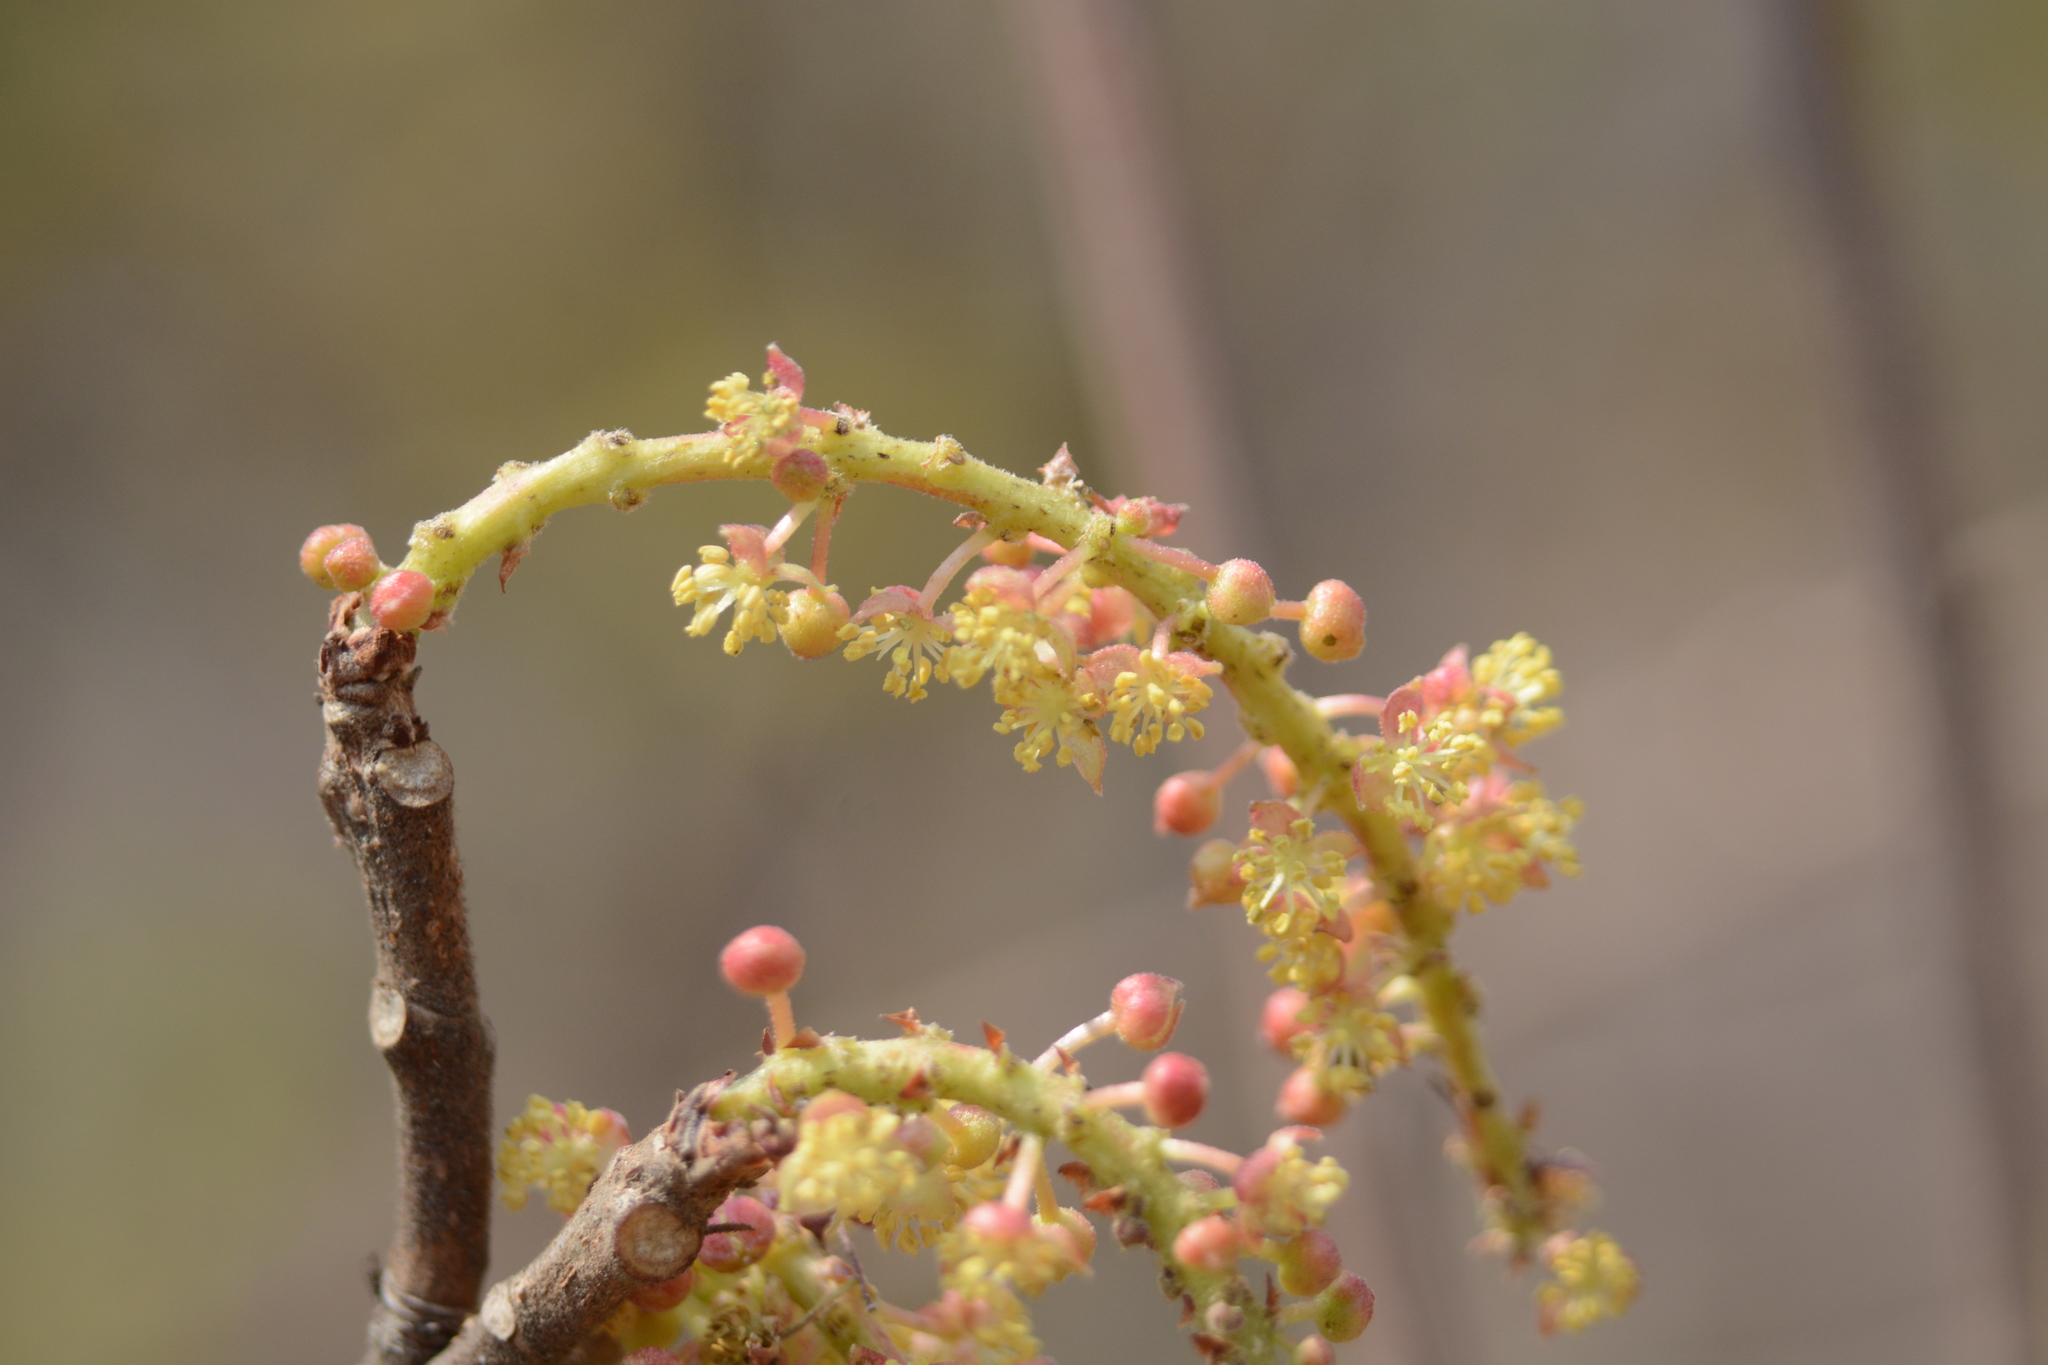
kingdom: Plantae
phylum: Tracheophyta
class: Magnoliopsida
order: Malpighiales
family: Euphorbiaceae
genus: Mallotus
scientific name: Mallotus polycarpus
